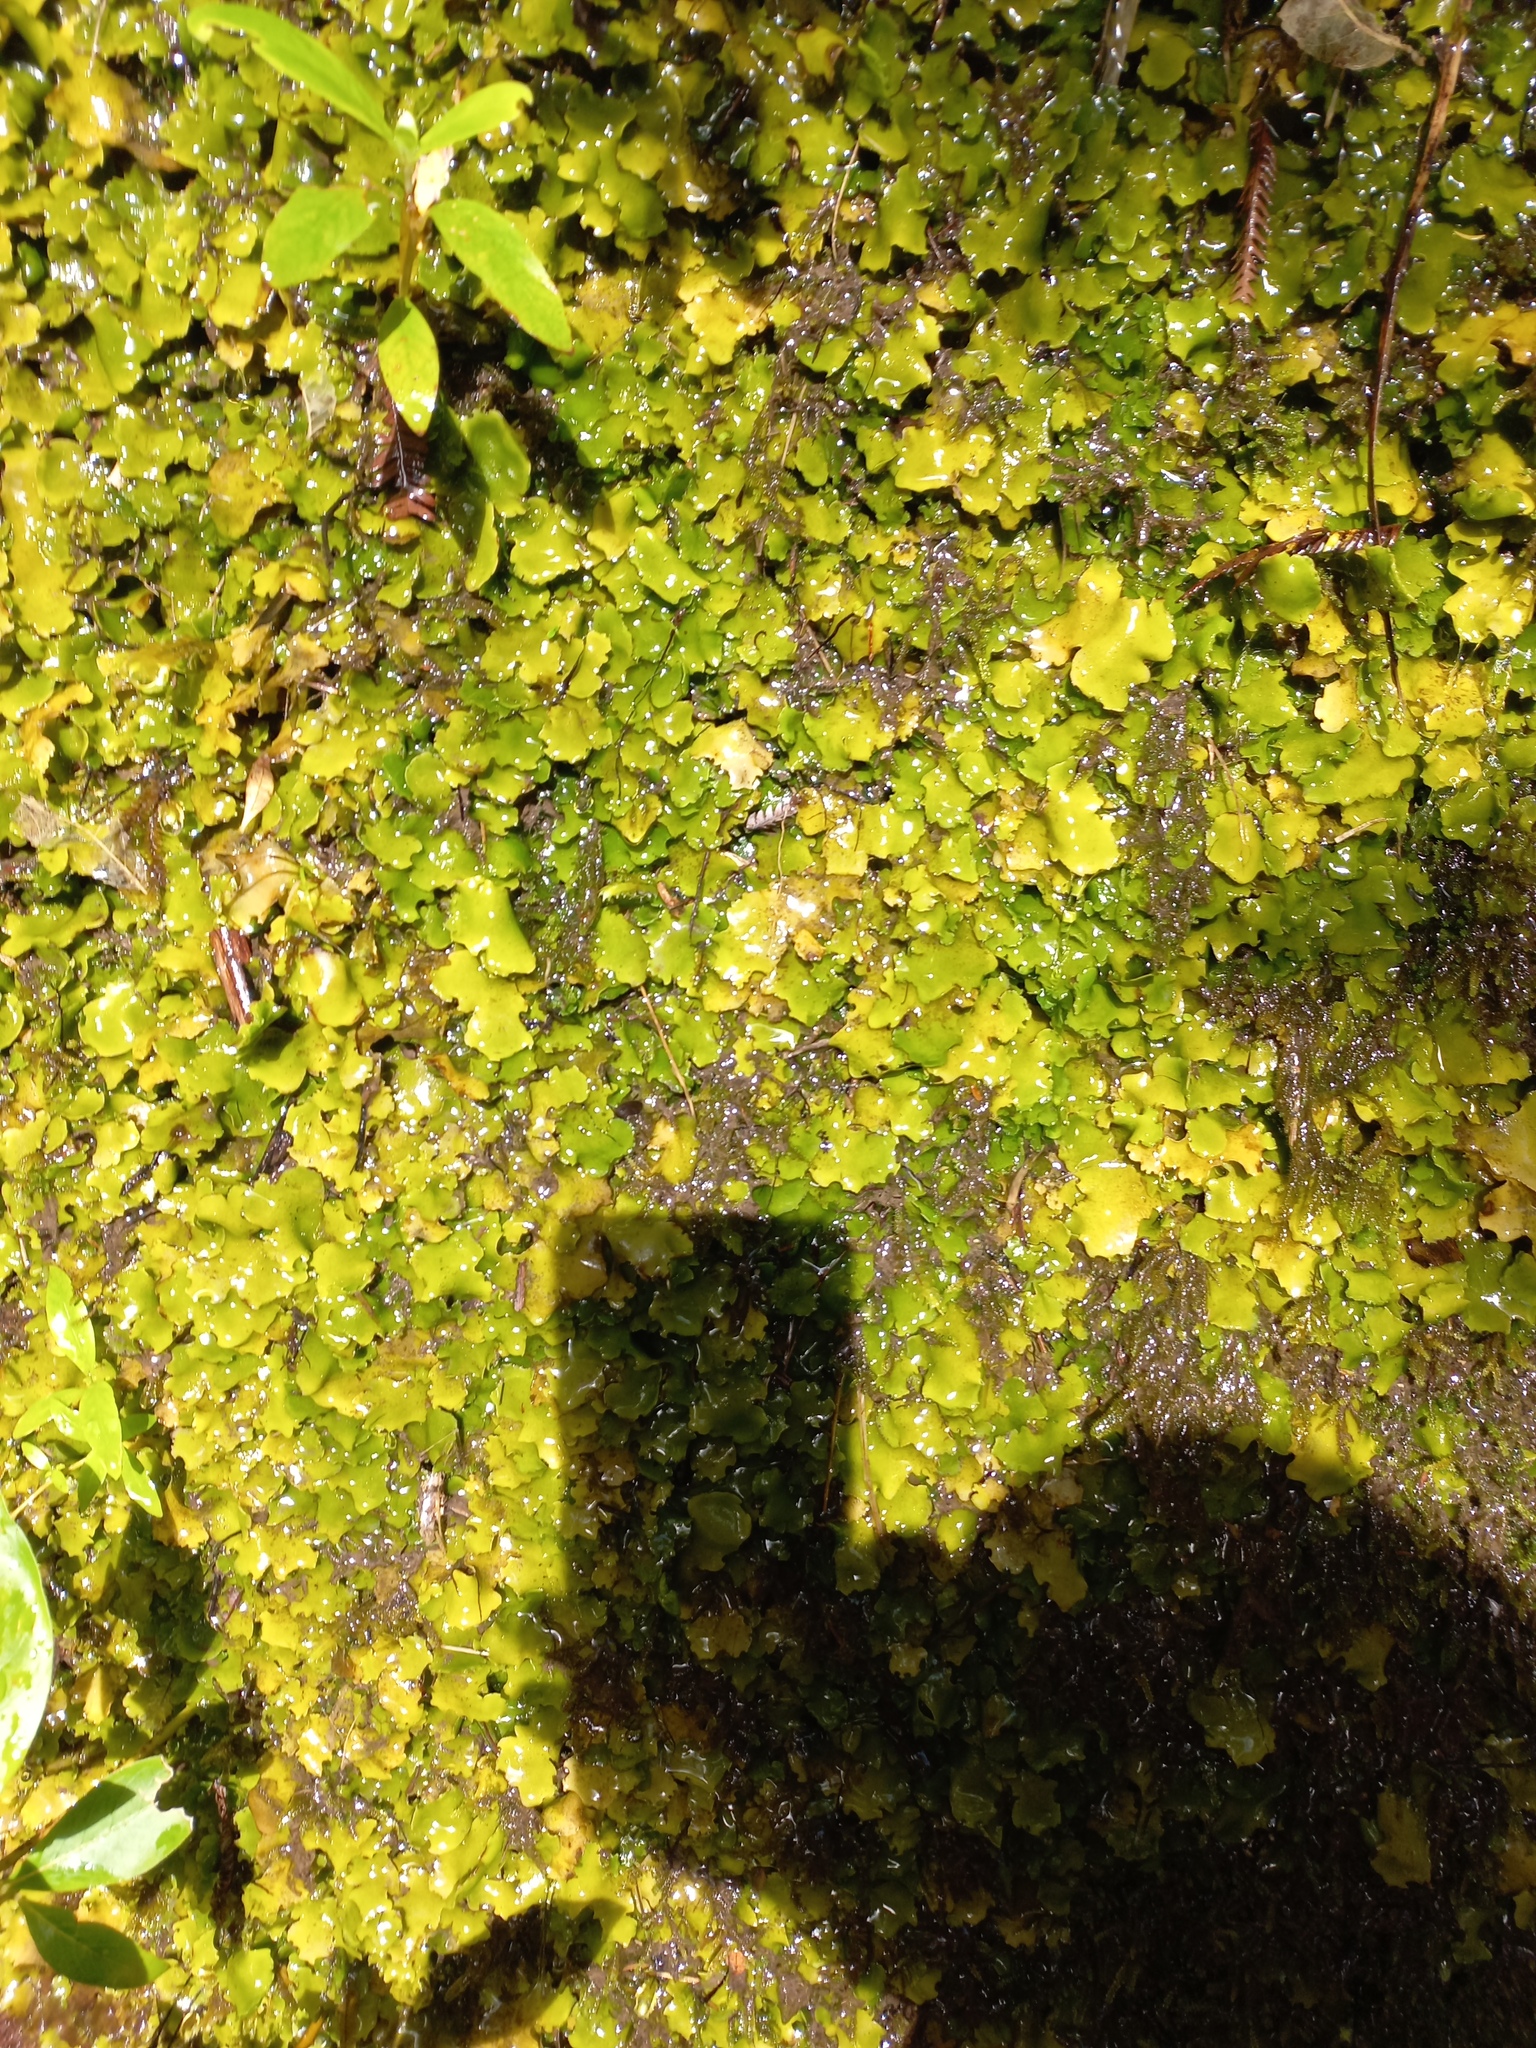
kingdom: Plantae
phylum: Marchantiophyta
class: Marchantiopsida
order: Marchantiales
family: Monocleaceae
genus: Monoclea
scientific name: Monoclea forsteri
